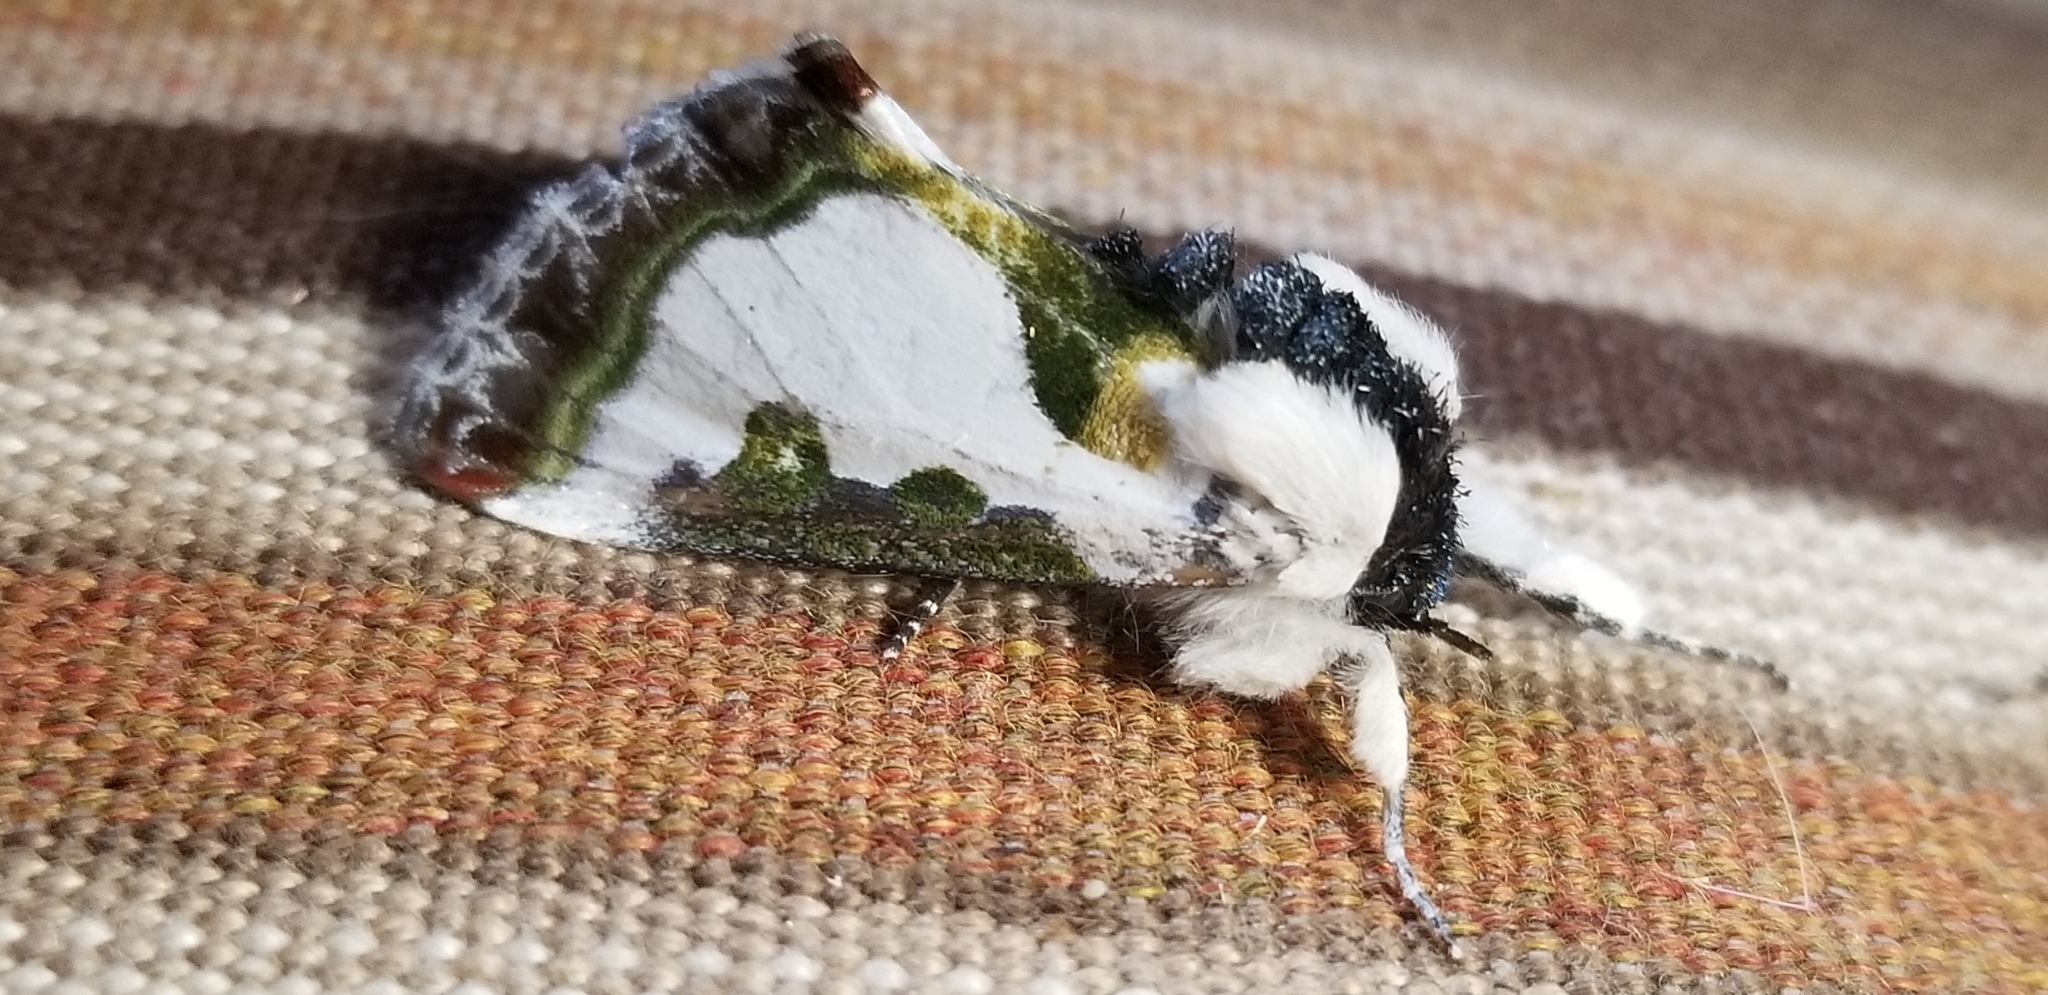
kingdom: Animalia
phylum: Arthropoda
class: Insecta
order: Lepidoptera
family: Noctuidae
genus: Xerociris
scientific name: Xerociris wilsonii
